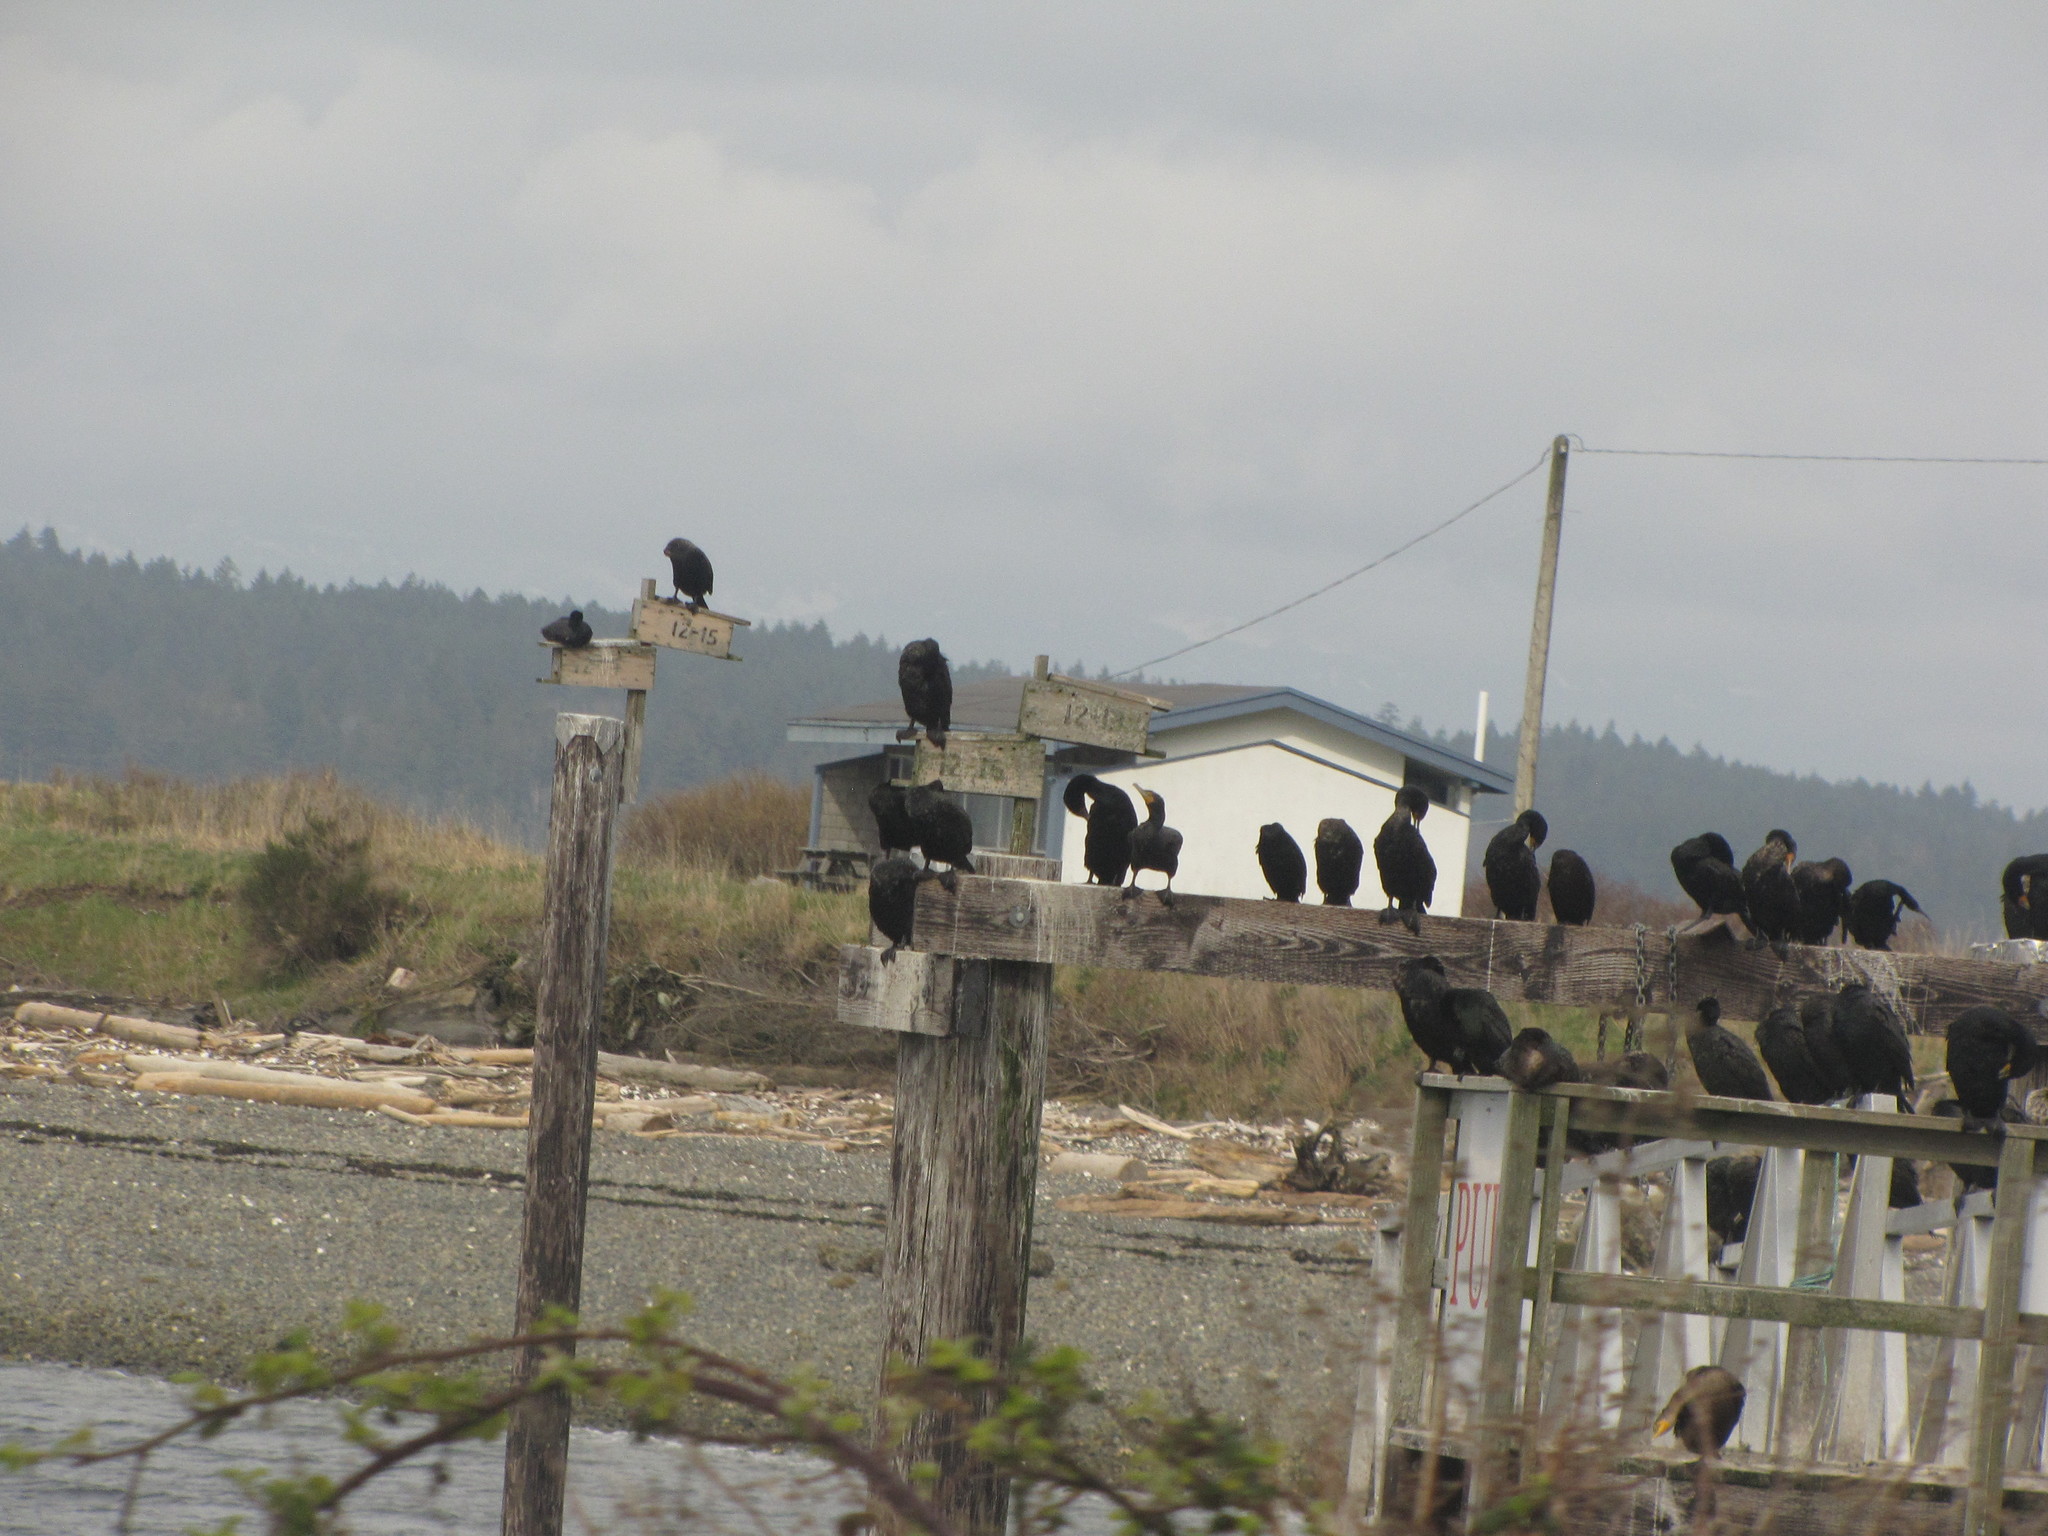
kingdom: Animalia
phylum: Chordata
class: Aves
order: Suliformes
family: Phalacrocoracidae
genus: Phalacrocorax
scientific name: Phalacrocorax auritus
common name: Double-crested cormorant
